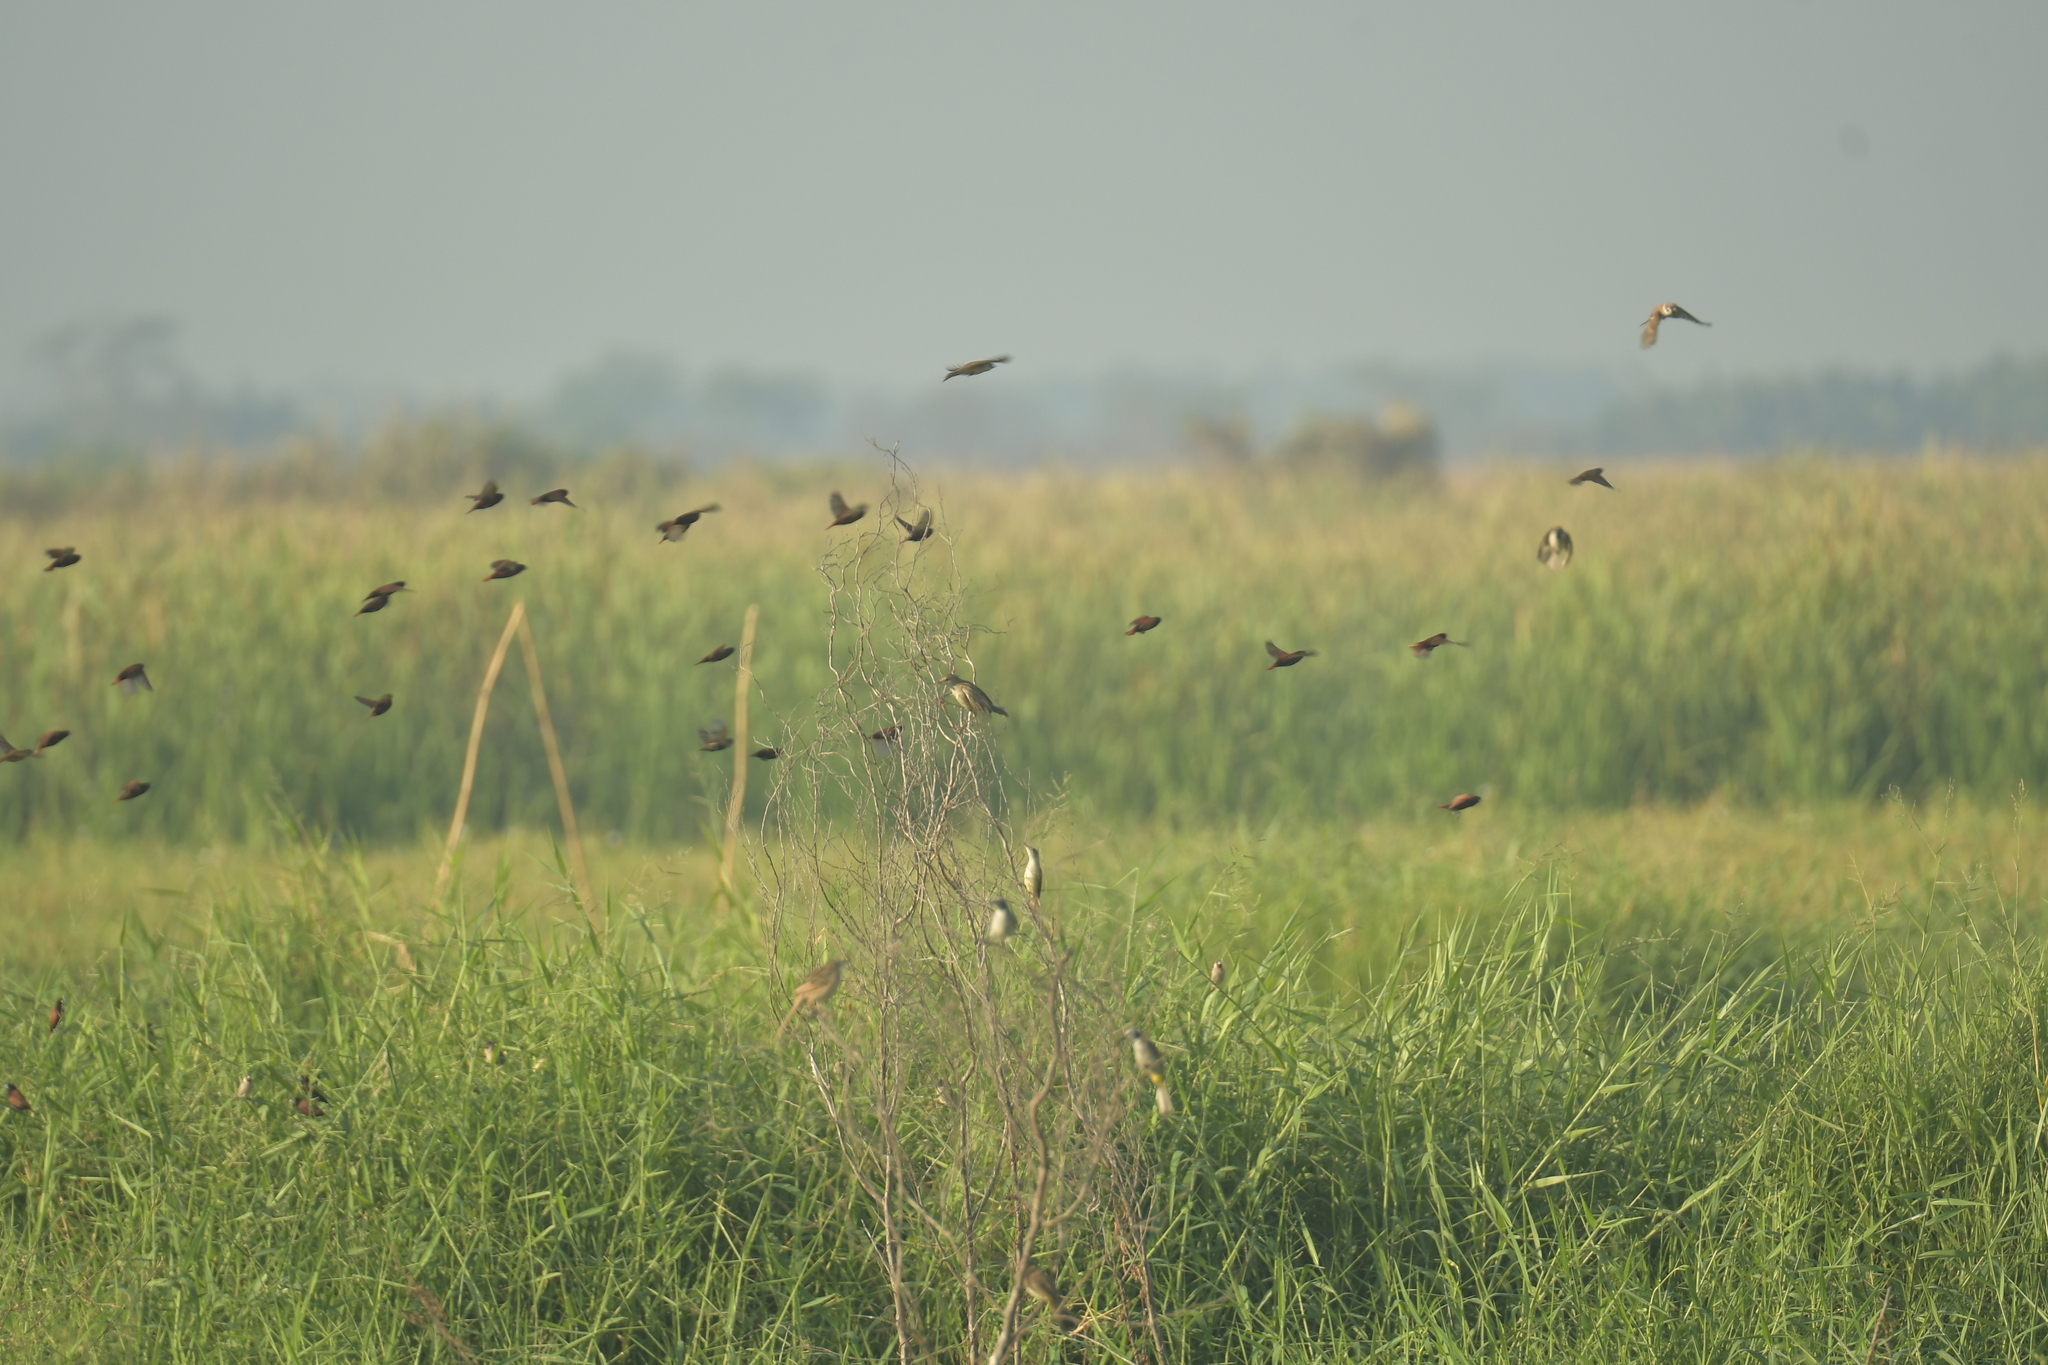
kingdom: Animalia
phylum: Chordata
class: Aves
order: Passeriformes
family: Estrildidae
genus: Lonchura
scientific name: Lonchura atricapilla
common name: Chestnut munia
